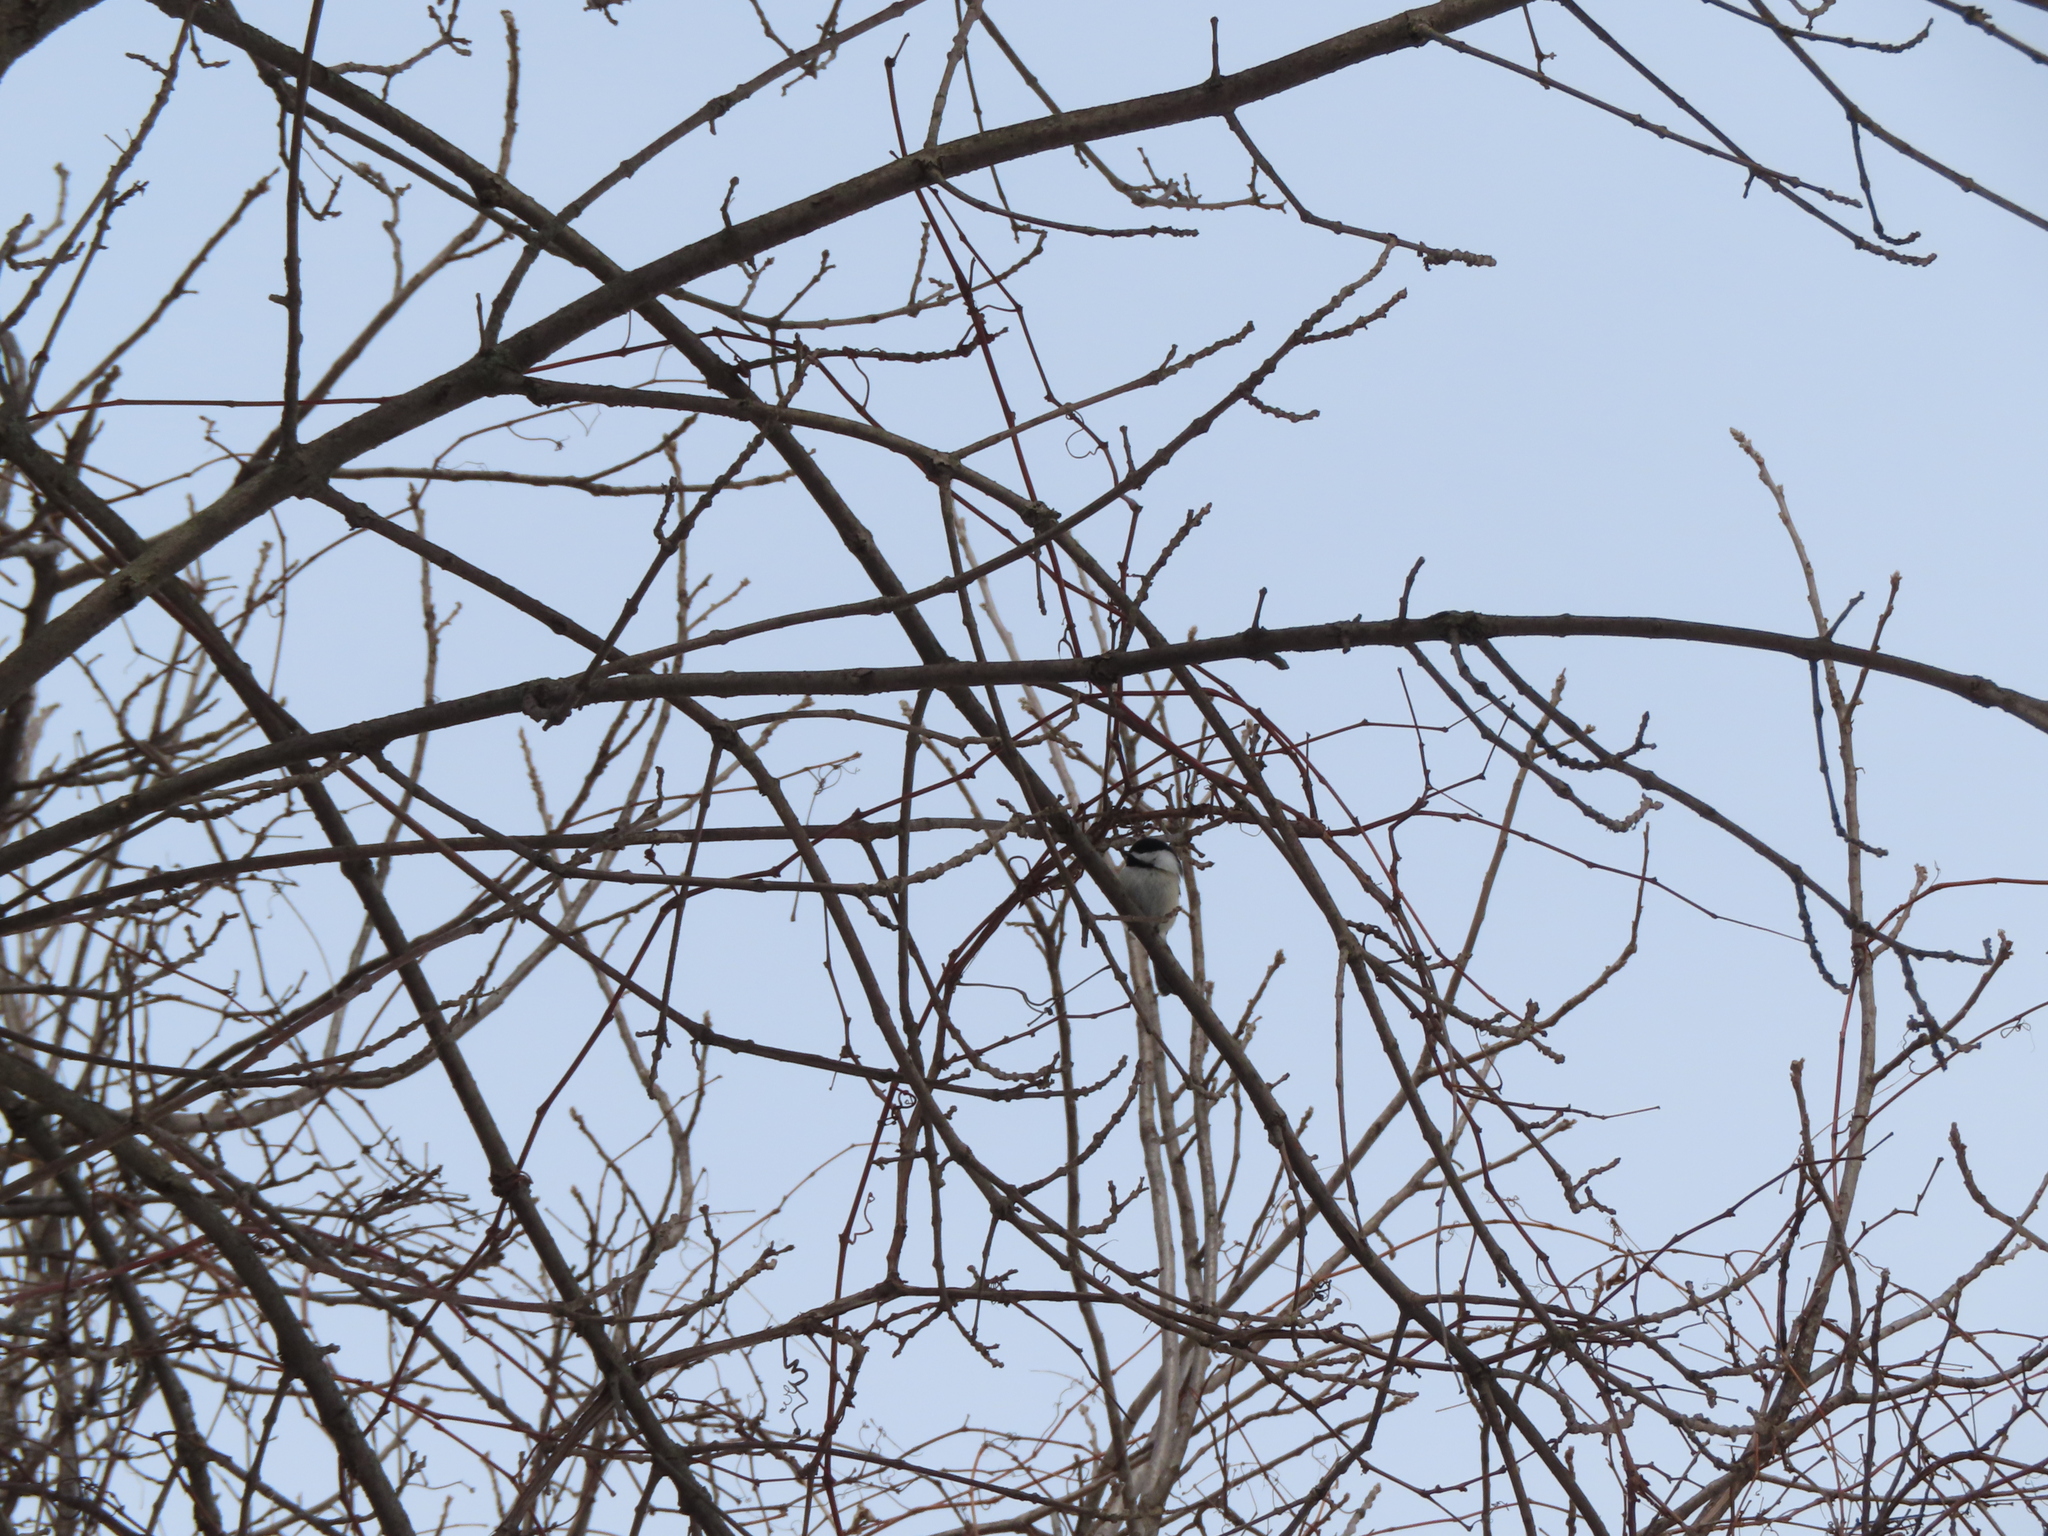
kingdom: Animalia
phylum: Chordata
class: Aves
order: Passeriformes
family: Paridae
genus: Poecile
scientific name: Poecile atricapillus
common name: Black-capped chickadee
